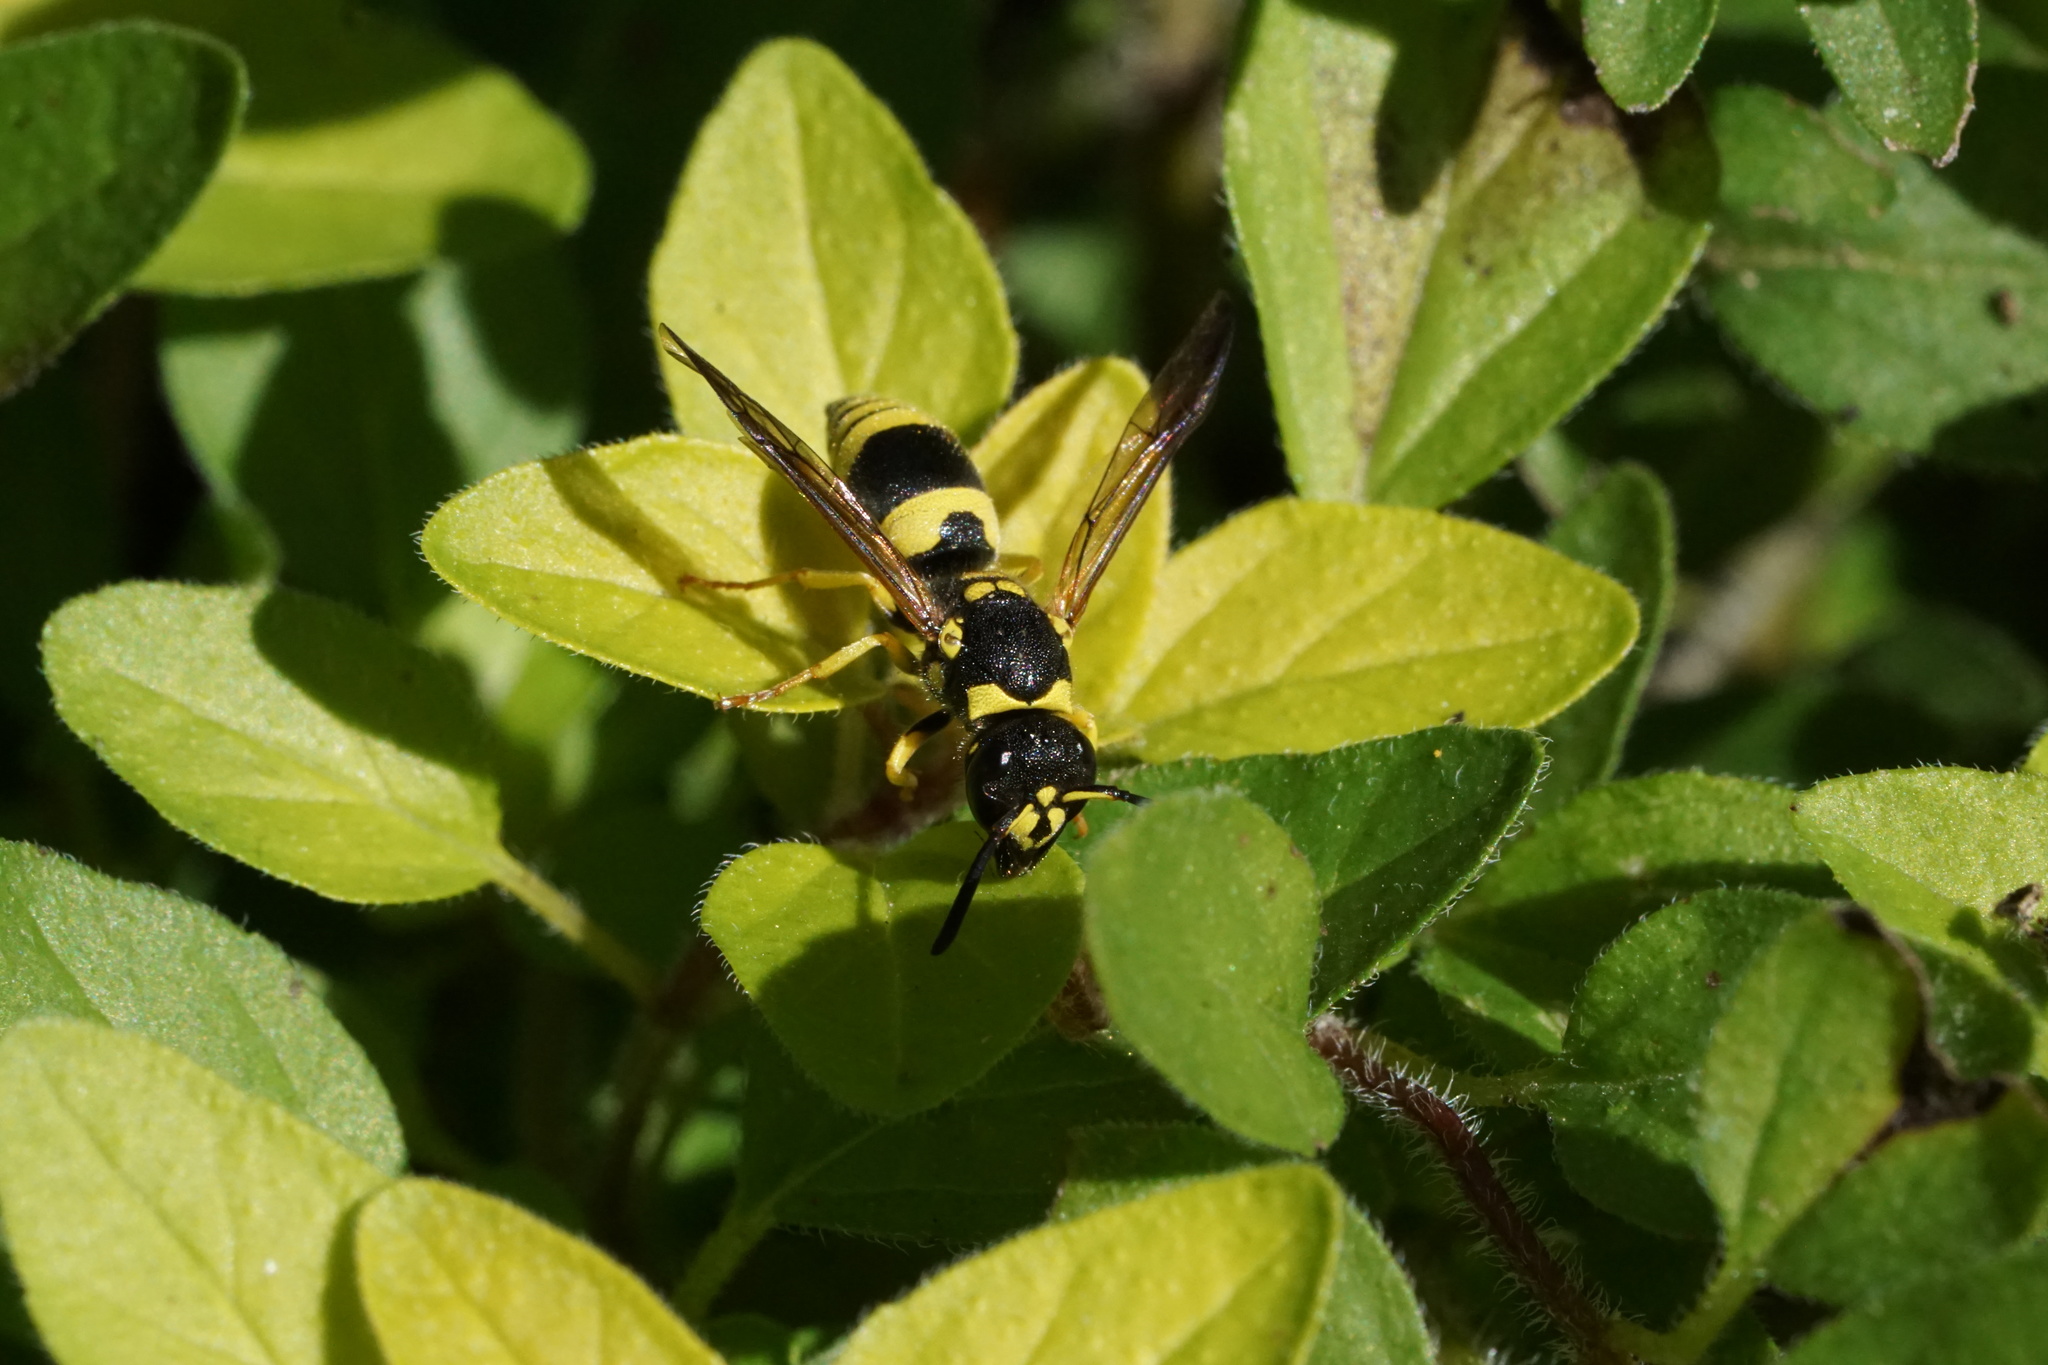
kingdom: Animalia
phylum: Arthropoda
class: Insecta
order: Hymenoptera
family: Vespidae
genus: Ancistrocerus
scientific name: Ancistrocerus gazella
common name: European tube wasp
